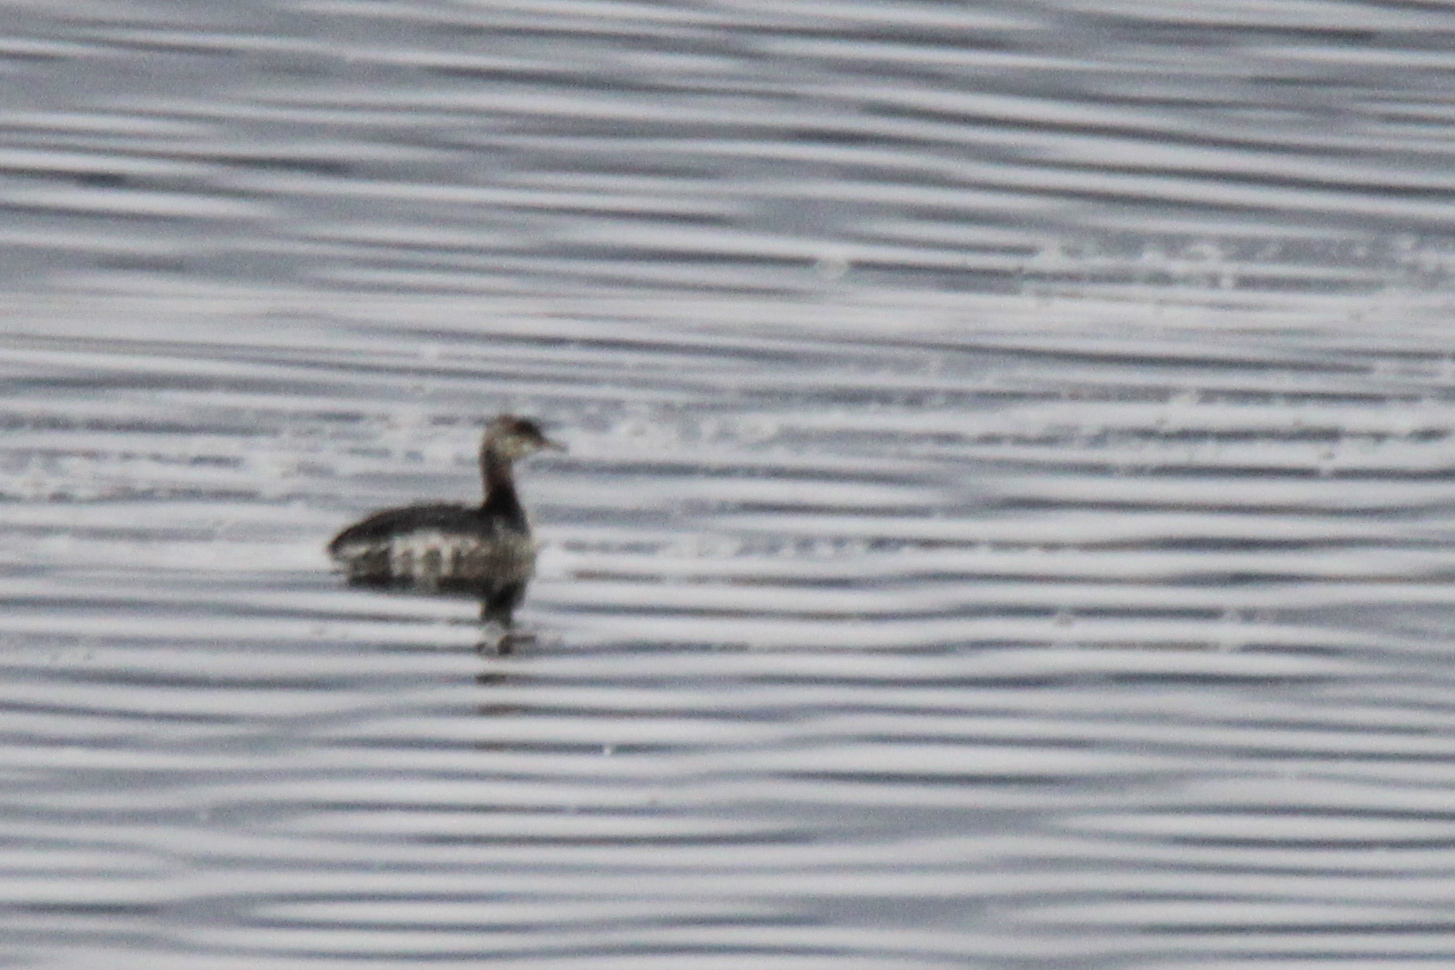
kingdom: Animalia
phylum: Chordata
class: Aves
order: Podicipediformes
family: Podicipedidae
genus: Podiceps
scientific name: Podiceps auritus
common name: Horned grebe
